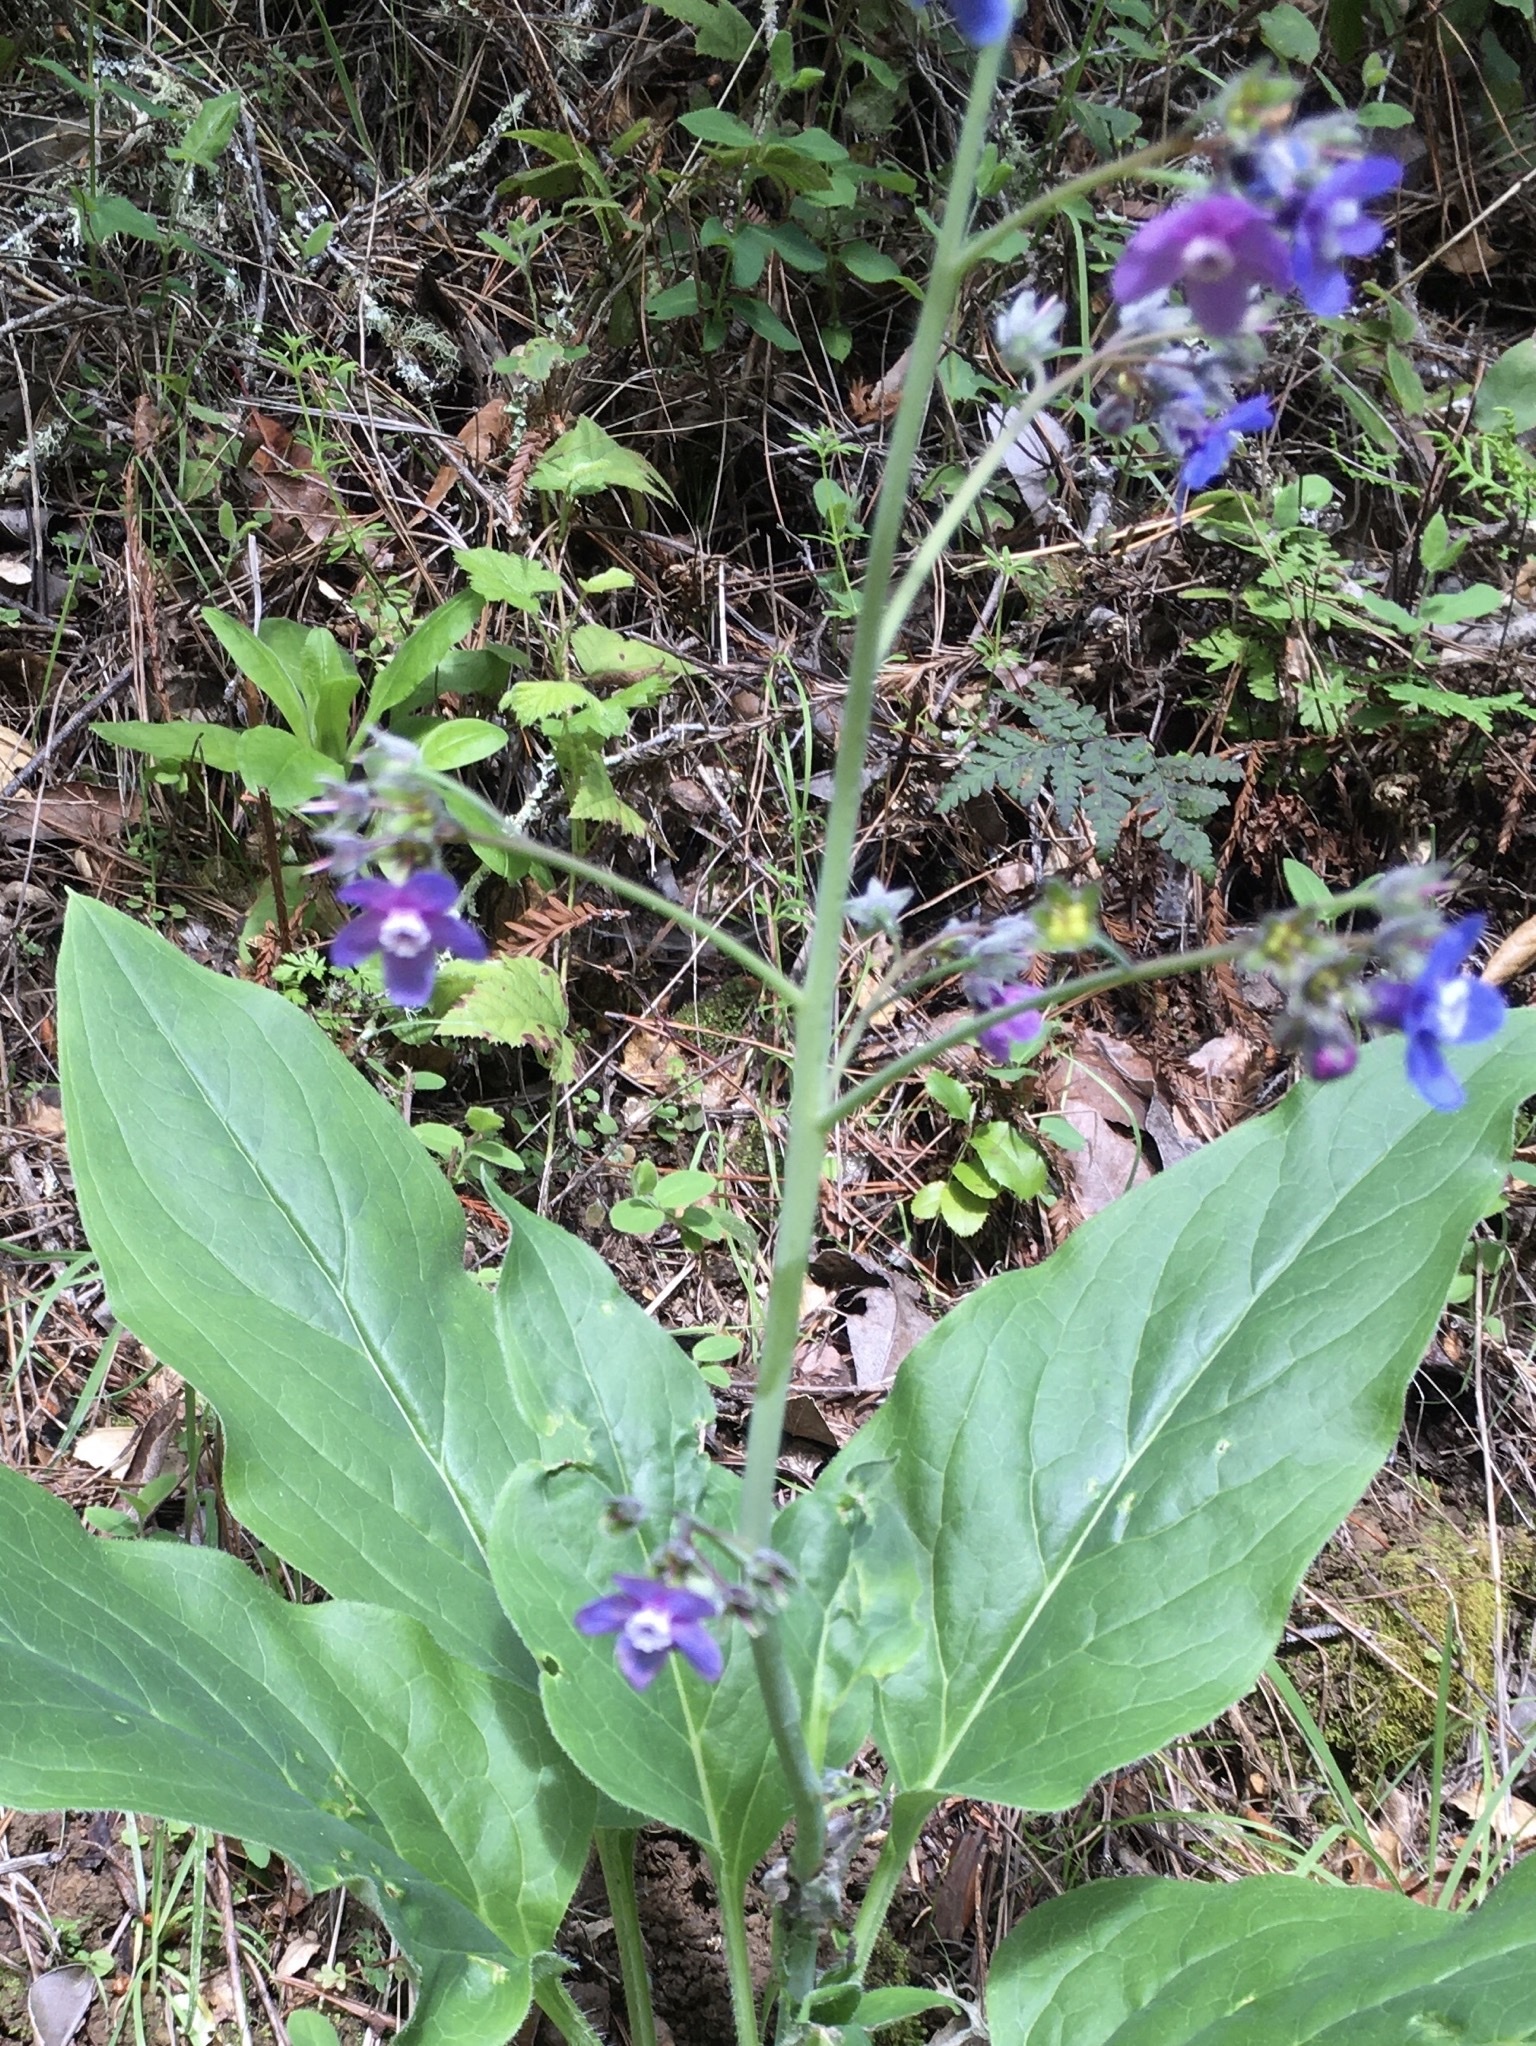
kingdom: Plantae
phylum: Tracheophyta
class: Magnoliopsida
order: Boraginales
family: Boraginaceae
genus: Adelinia
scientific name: Adelinia grande
